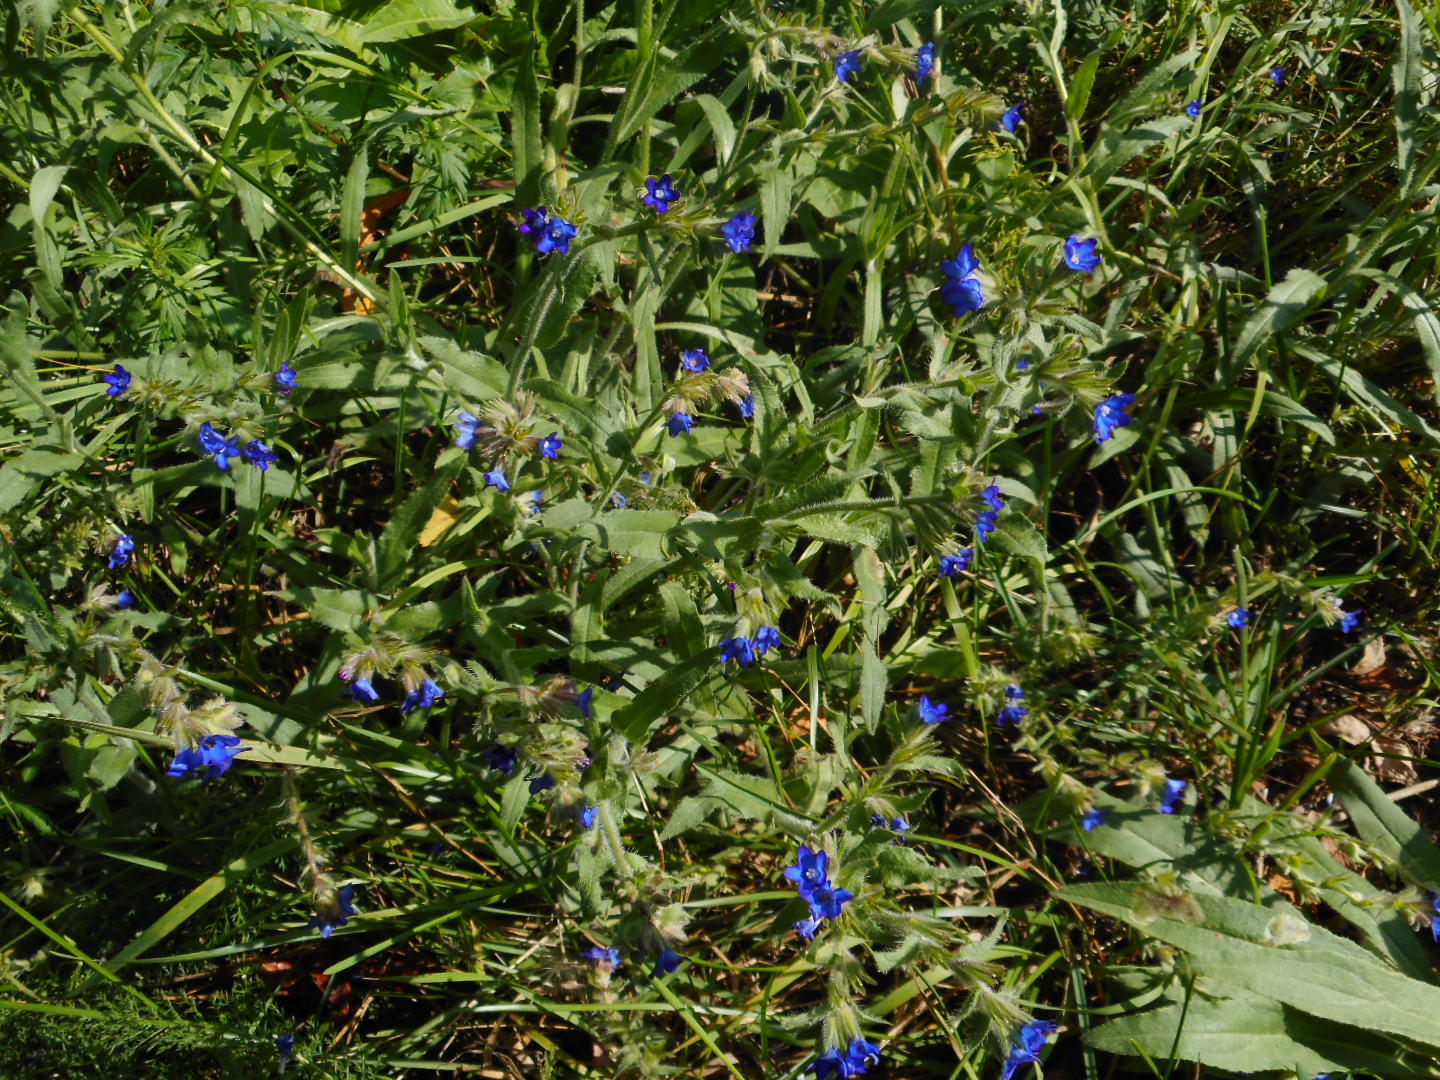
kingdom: Plantae
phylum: Tracheophyta
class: Magnoliopsida
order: Boraginales
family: Boraginaceae
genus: Anchusa
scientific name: Anchusa officinalis
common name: Alkanet
